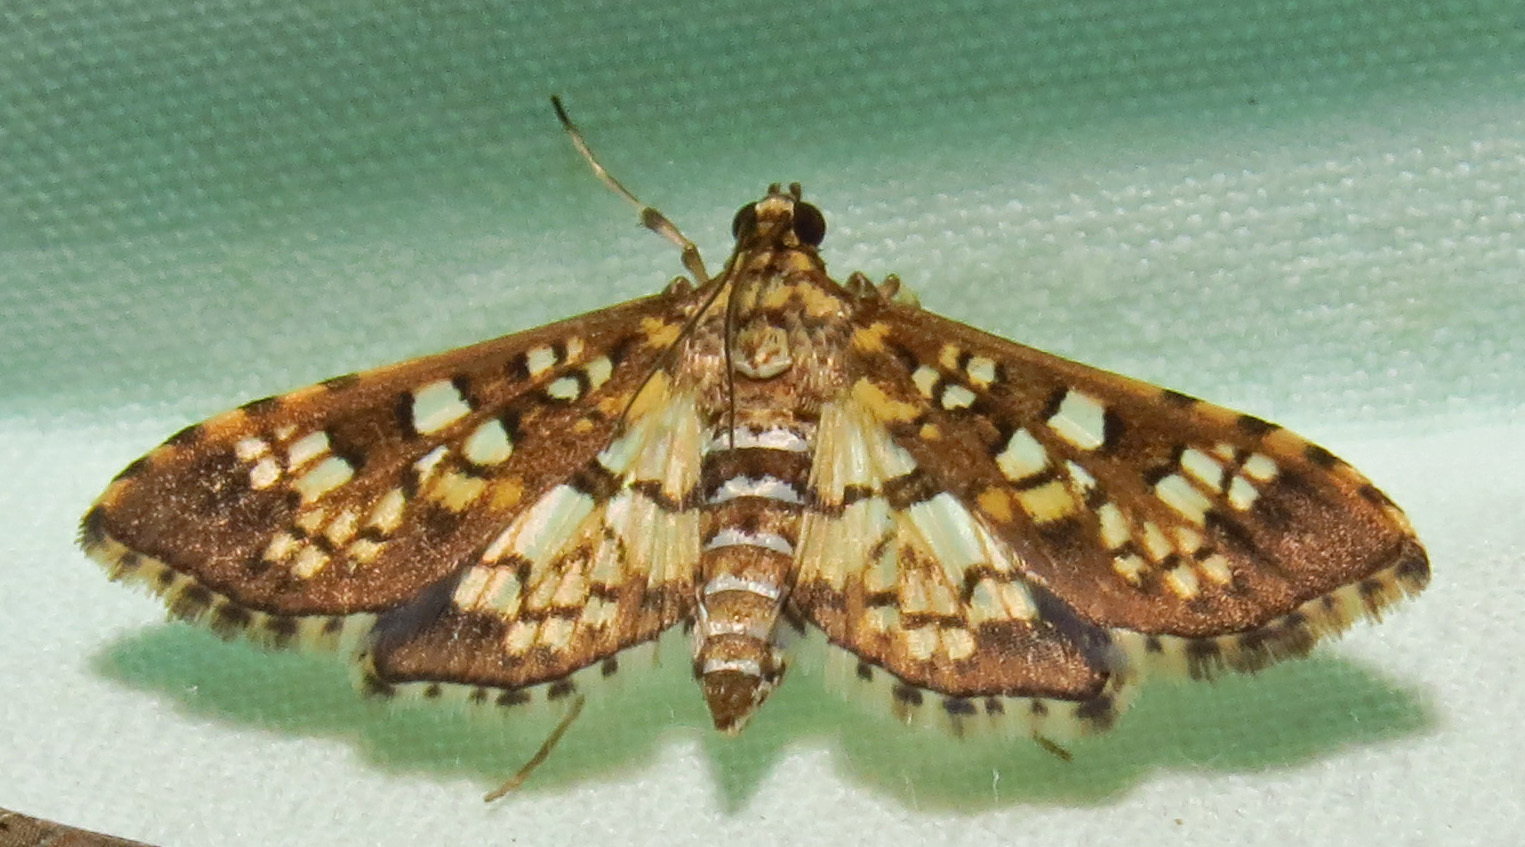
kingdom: Animalia
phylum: Arthropoda
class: Insecta
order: Lepidoptera
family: Crambidae
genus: Samea
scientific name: Samea ecclesialis
